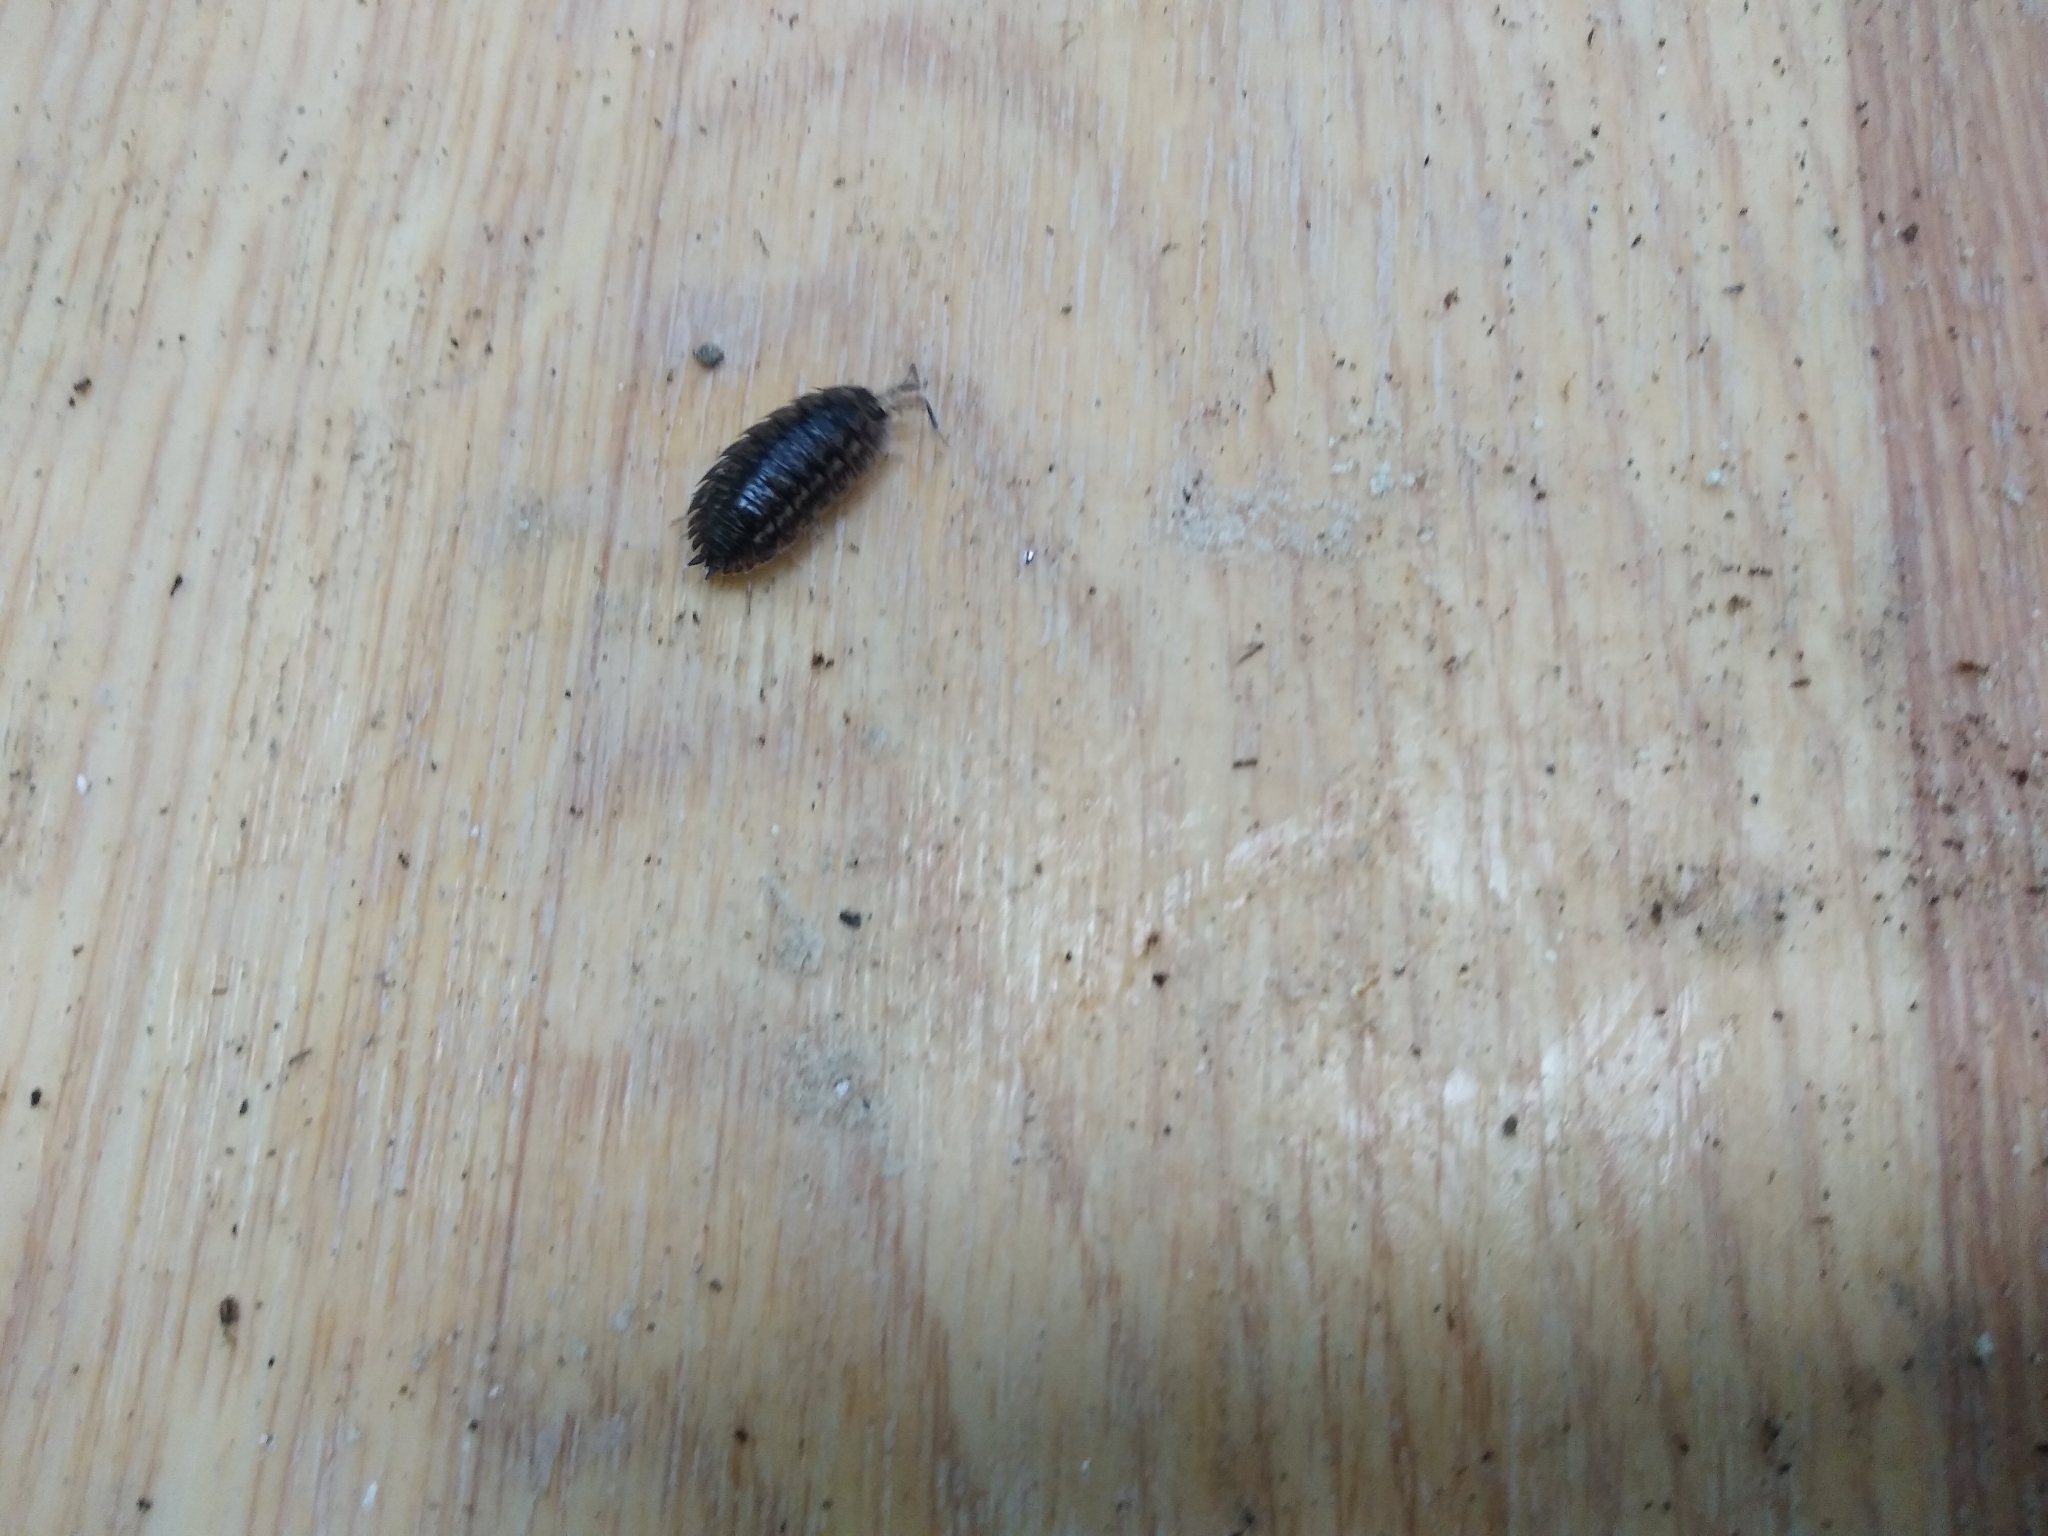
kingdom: Animalia
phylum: Arthropoda
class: Malacostraca
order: Isopoda
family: Trachelipodidae
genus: Trachelipus
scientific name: Trachelipus rathkii
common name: Isopod
